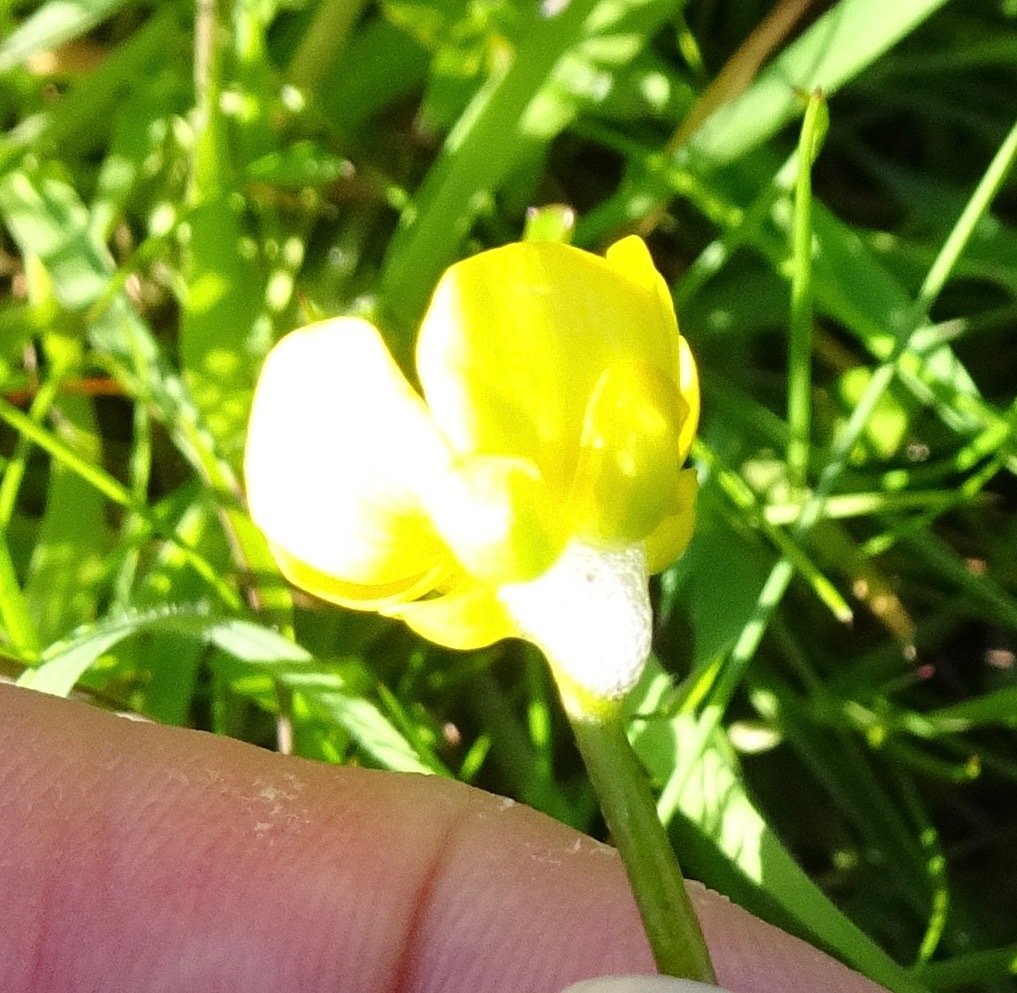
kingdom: Plantae
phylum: Tracheophyta
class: Magnoliopsida
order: Ranunculales
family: Ranunculaceae
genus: Ranunculus
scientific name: Ranunculus flammula
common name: Lesser spearwort
